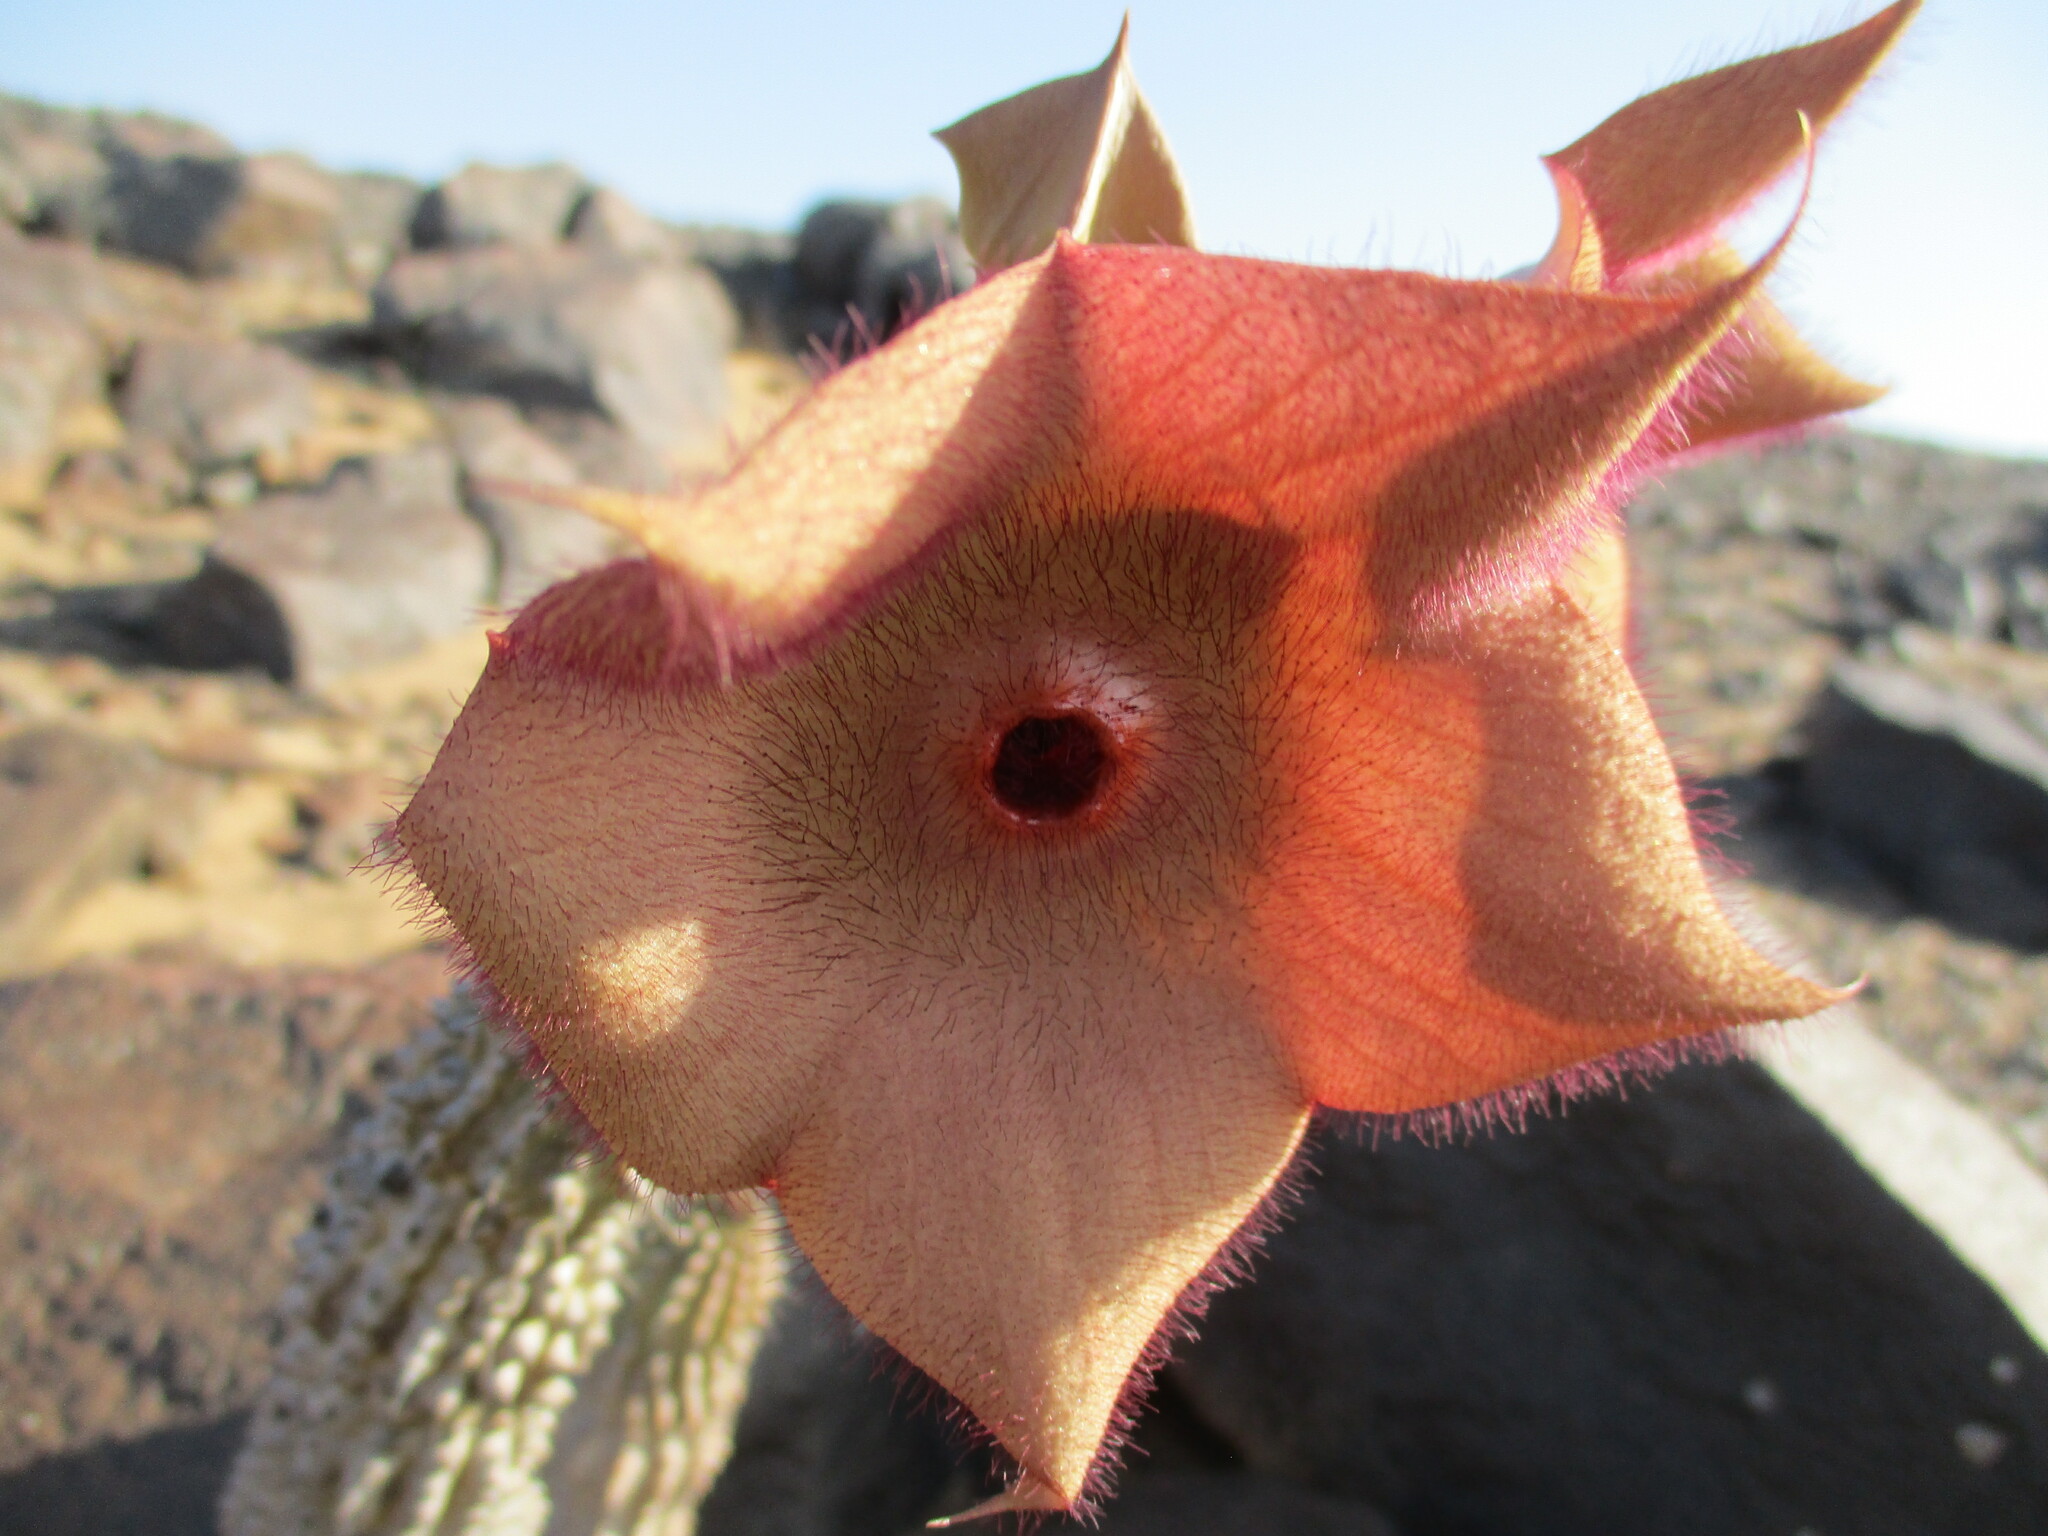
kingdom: Plantae
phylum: Tracheophyta
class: Magnoliopsida
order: Gentianales
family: Apocynaceae
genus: Ceropegia
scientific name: Ceropegia currorii
